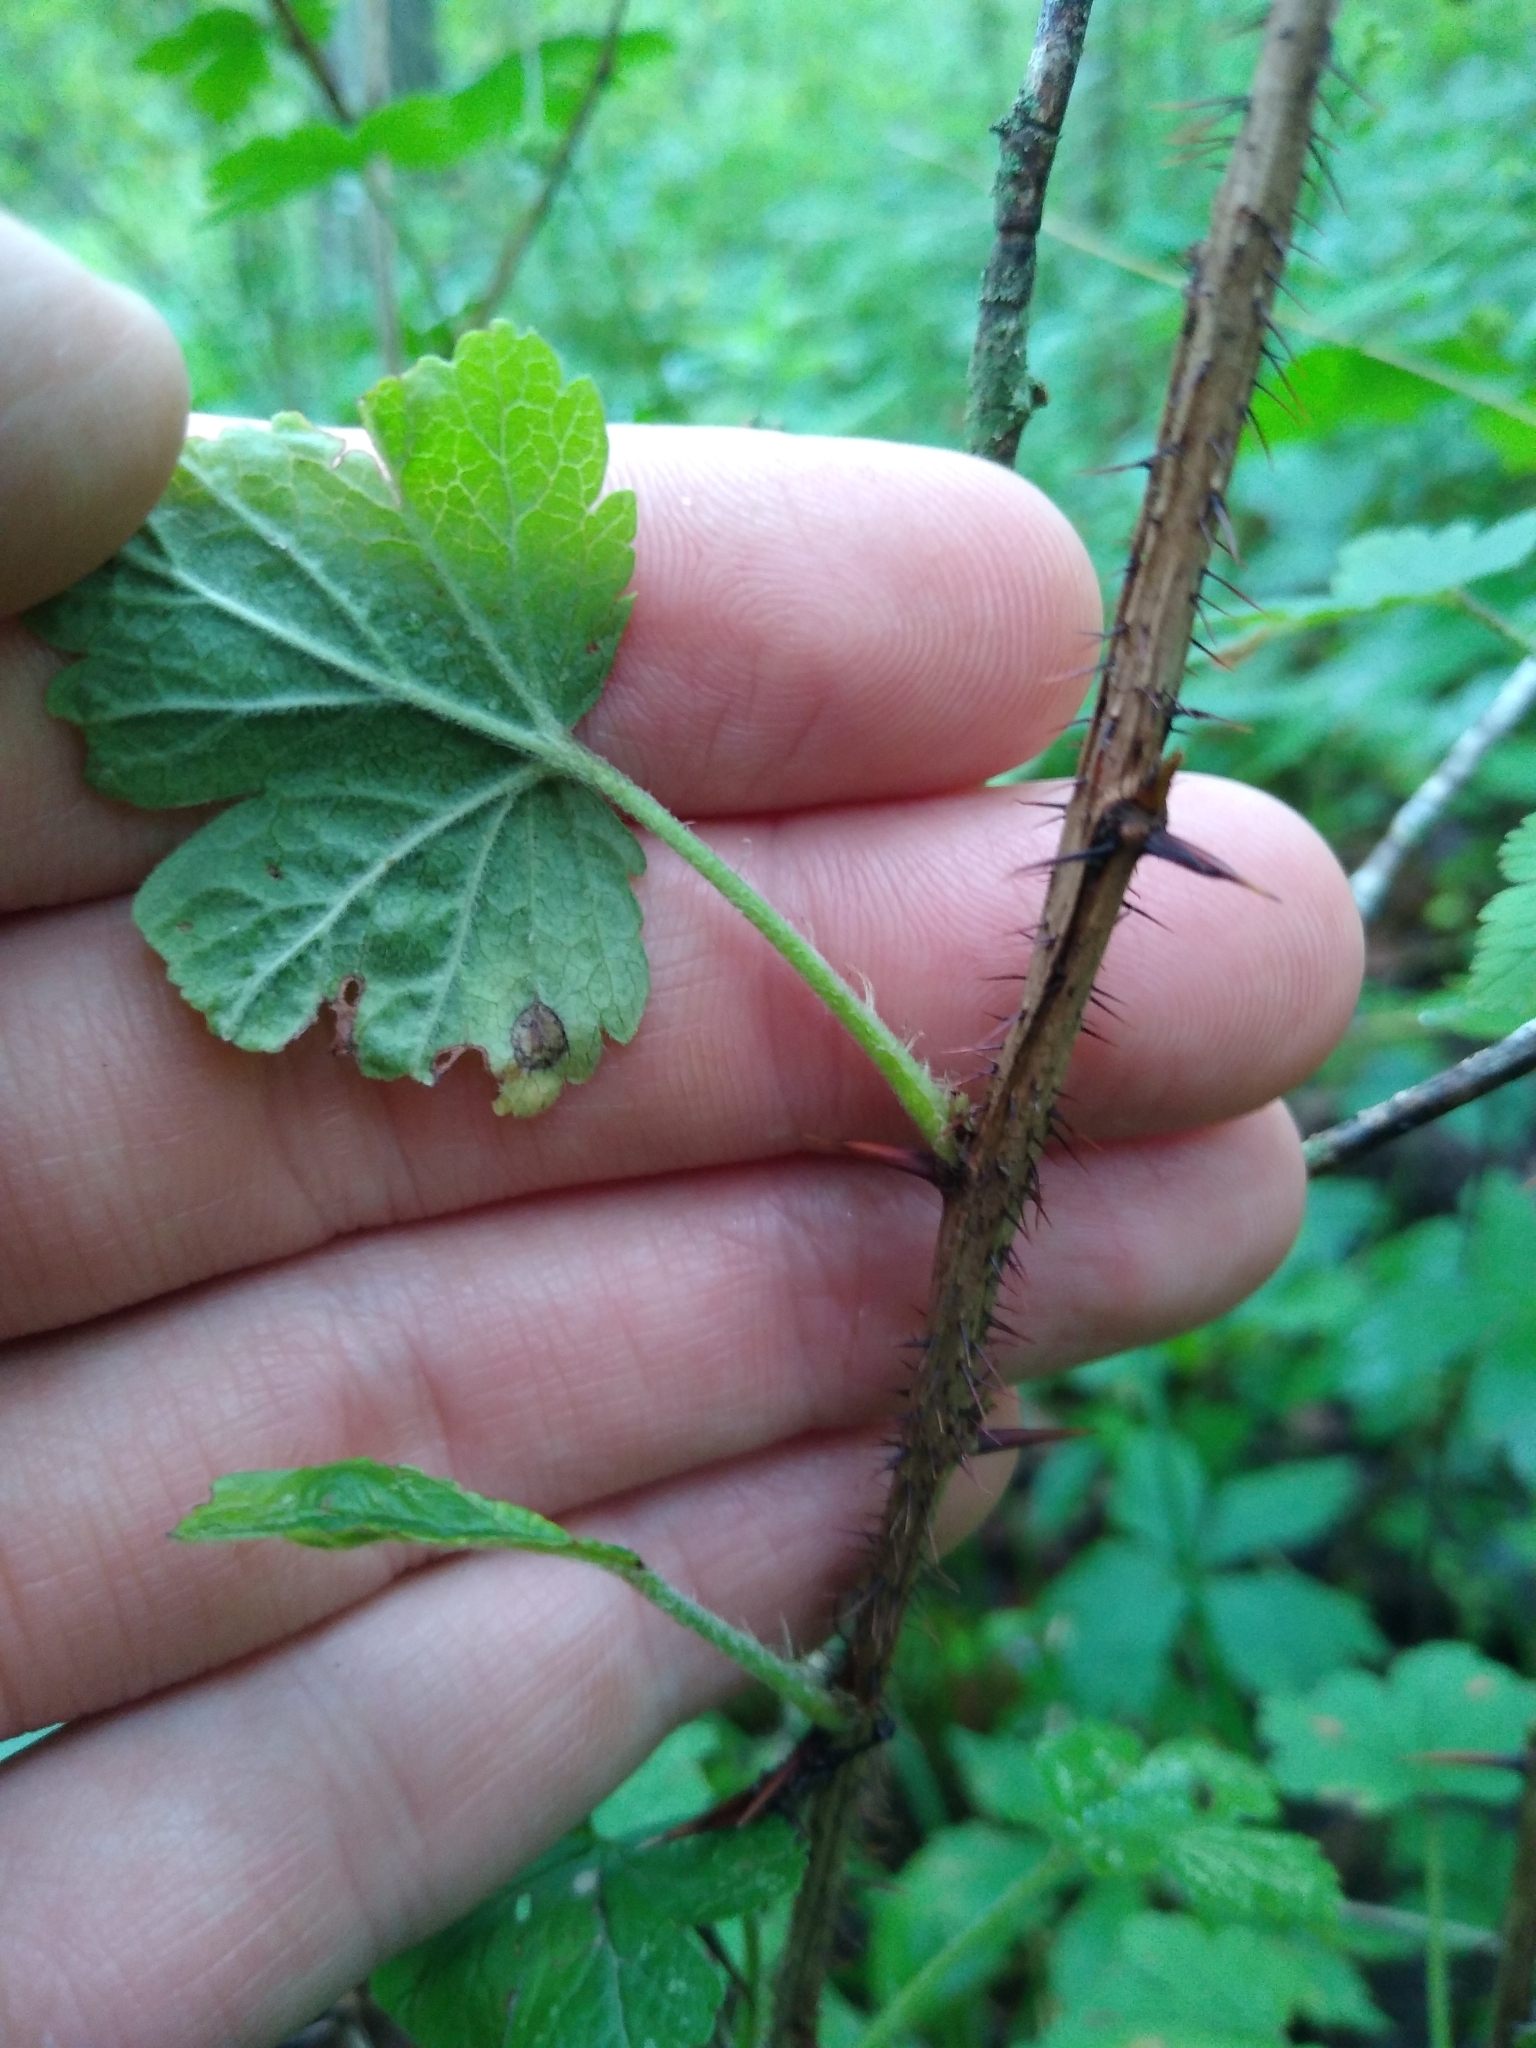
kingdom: Plantae
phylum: Tracheophyta
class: Magnoliopsida
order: Saxifragales
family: Grossulariaceae
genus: Ribes
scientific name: Ribes missouriense
